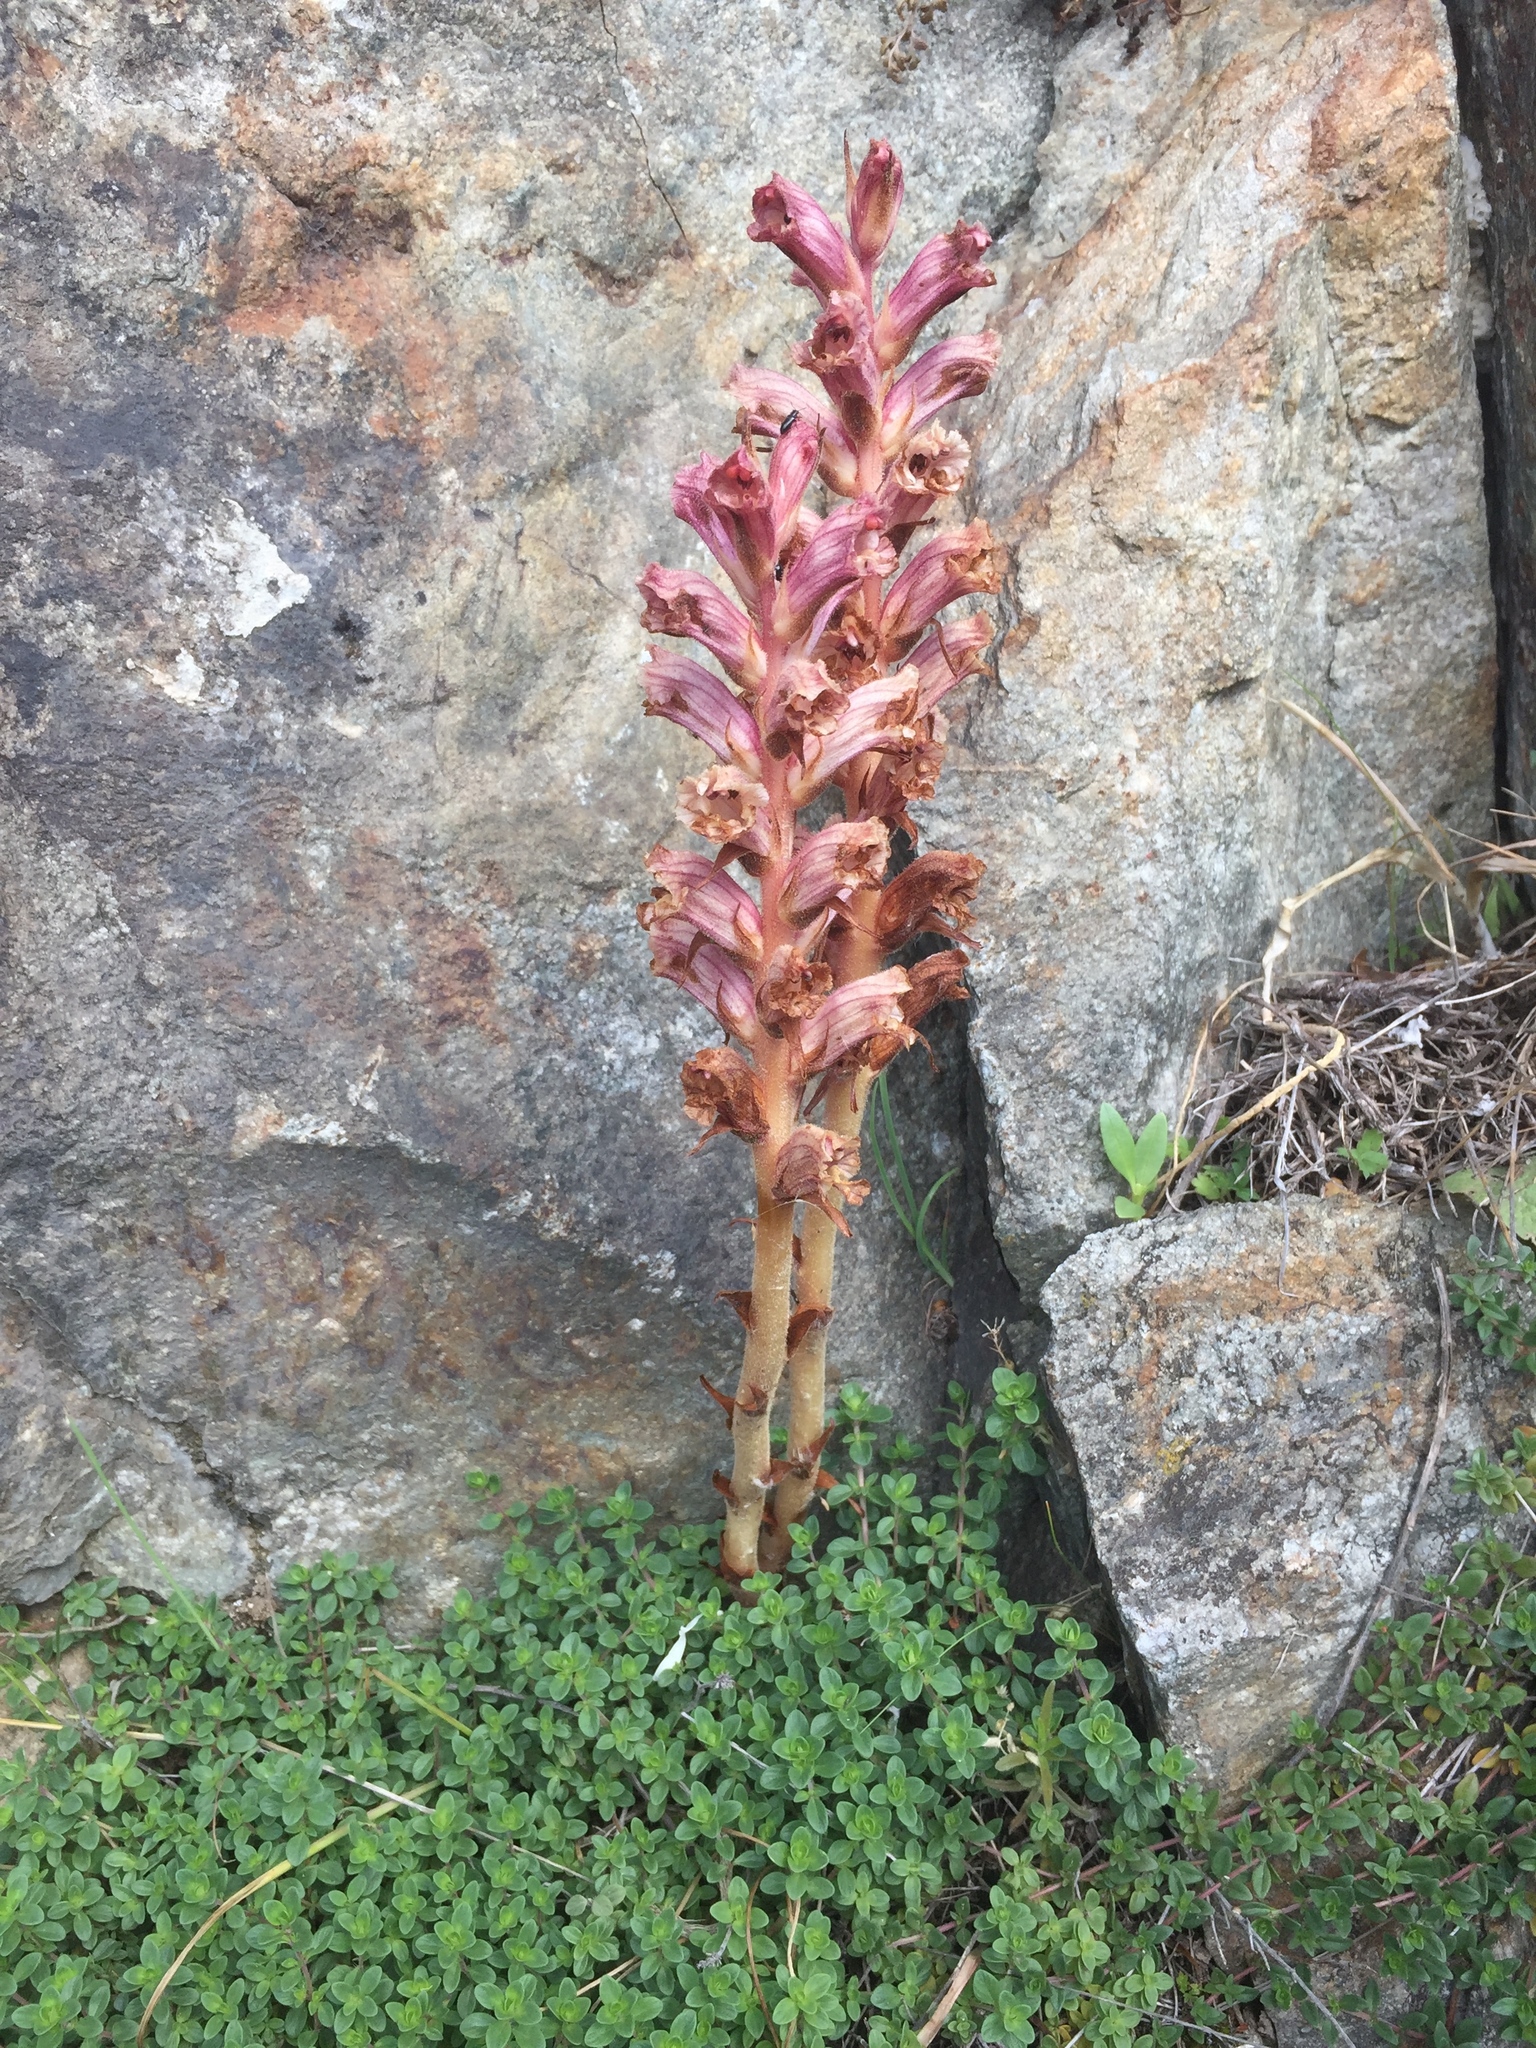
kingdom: Plantae
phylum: Tracheophyta
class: Magnoliopsida
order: Lamiales
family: Orobanchaceae
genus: Orobanche
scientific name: Orobanche alba
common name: Thyme broomrape
